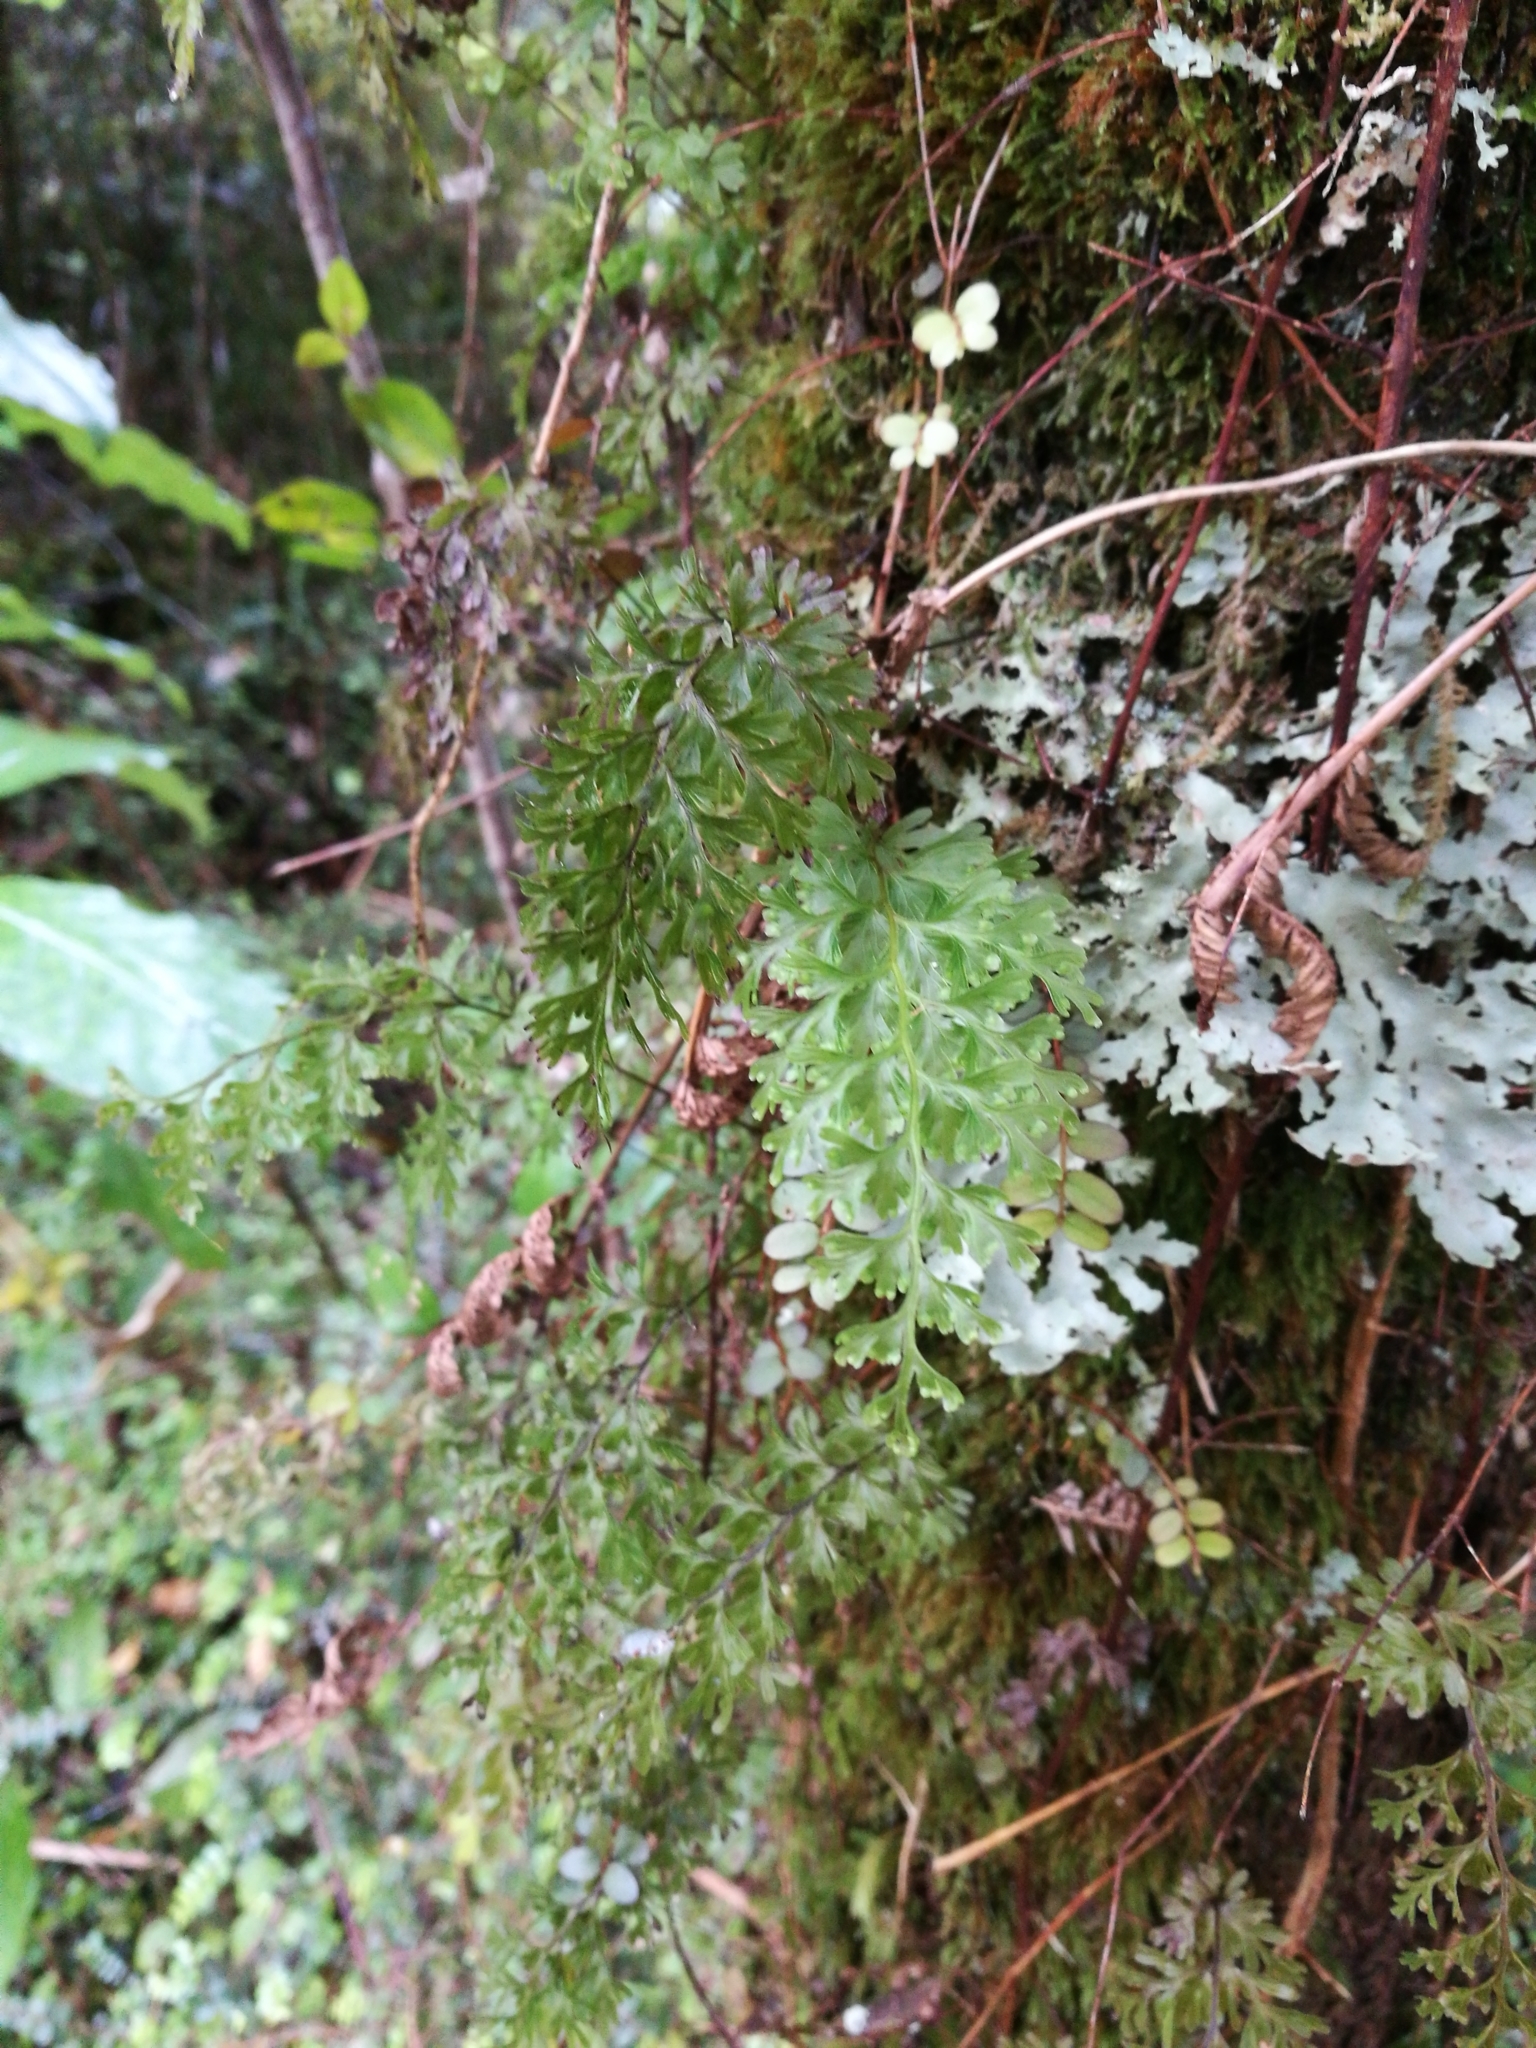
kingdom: Plantae
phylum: Tracheophyta
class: Polypodiopsida
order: Hymenophyllales
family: Hymenophyllaceae
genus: Hymenophyllum
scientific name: Hymenophyllum demissum
